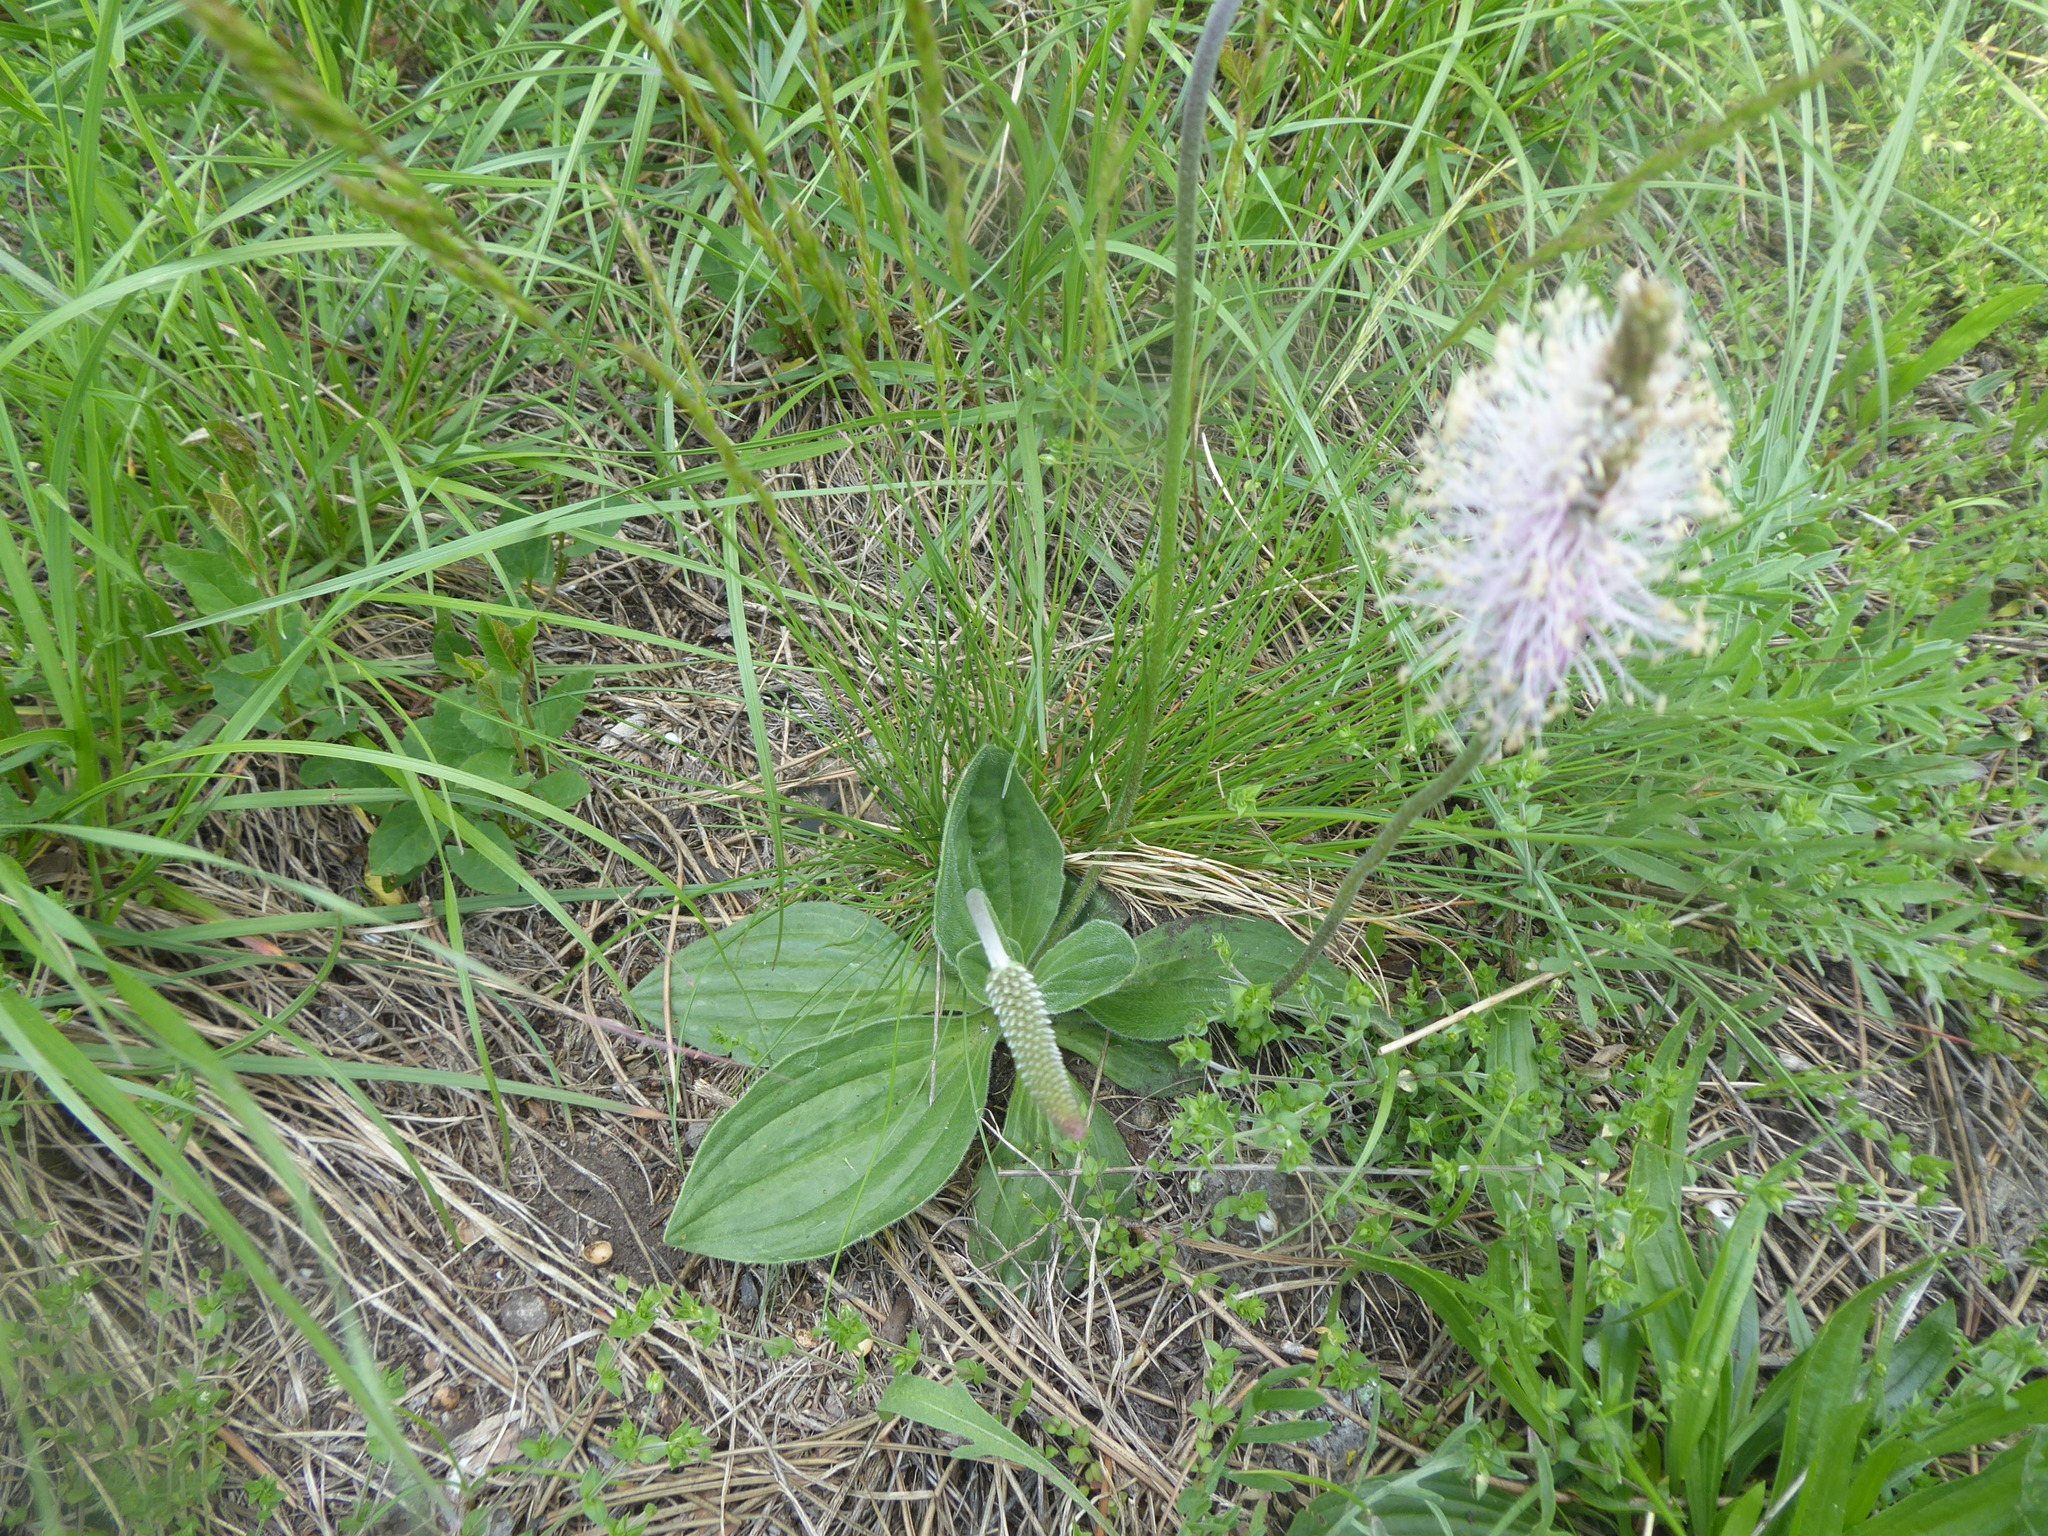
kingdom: Plantae
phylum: Tracheophyta
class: Magnoliopsida
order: Lamiales
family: Plantaginaceae
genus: Plantago
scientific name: Plantago media
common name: Hoary plantain
